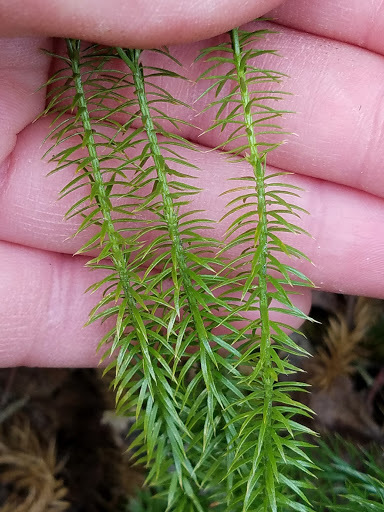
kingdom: Plantae
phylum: Tracheophyta
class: Lycopodiopsida
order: Lycopodiales
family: Lycopodiaceae
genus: Spinulum
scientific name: Spinulum annotinum
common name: Interrupted club-moss
